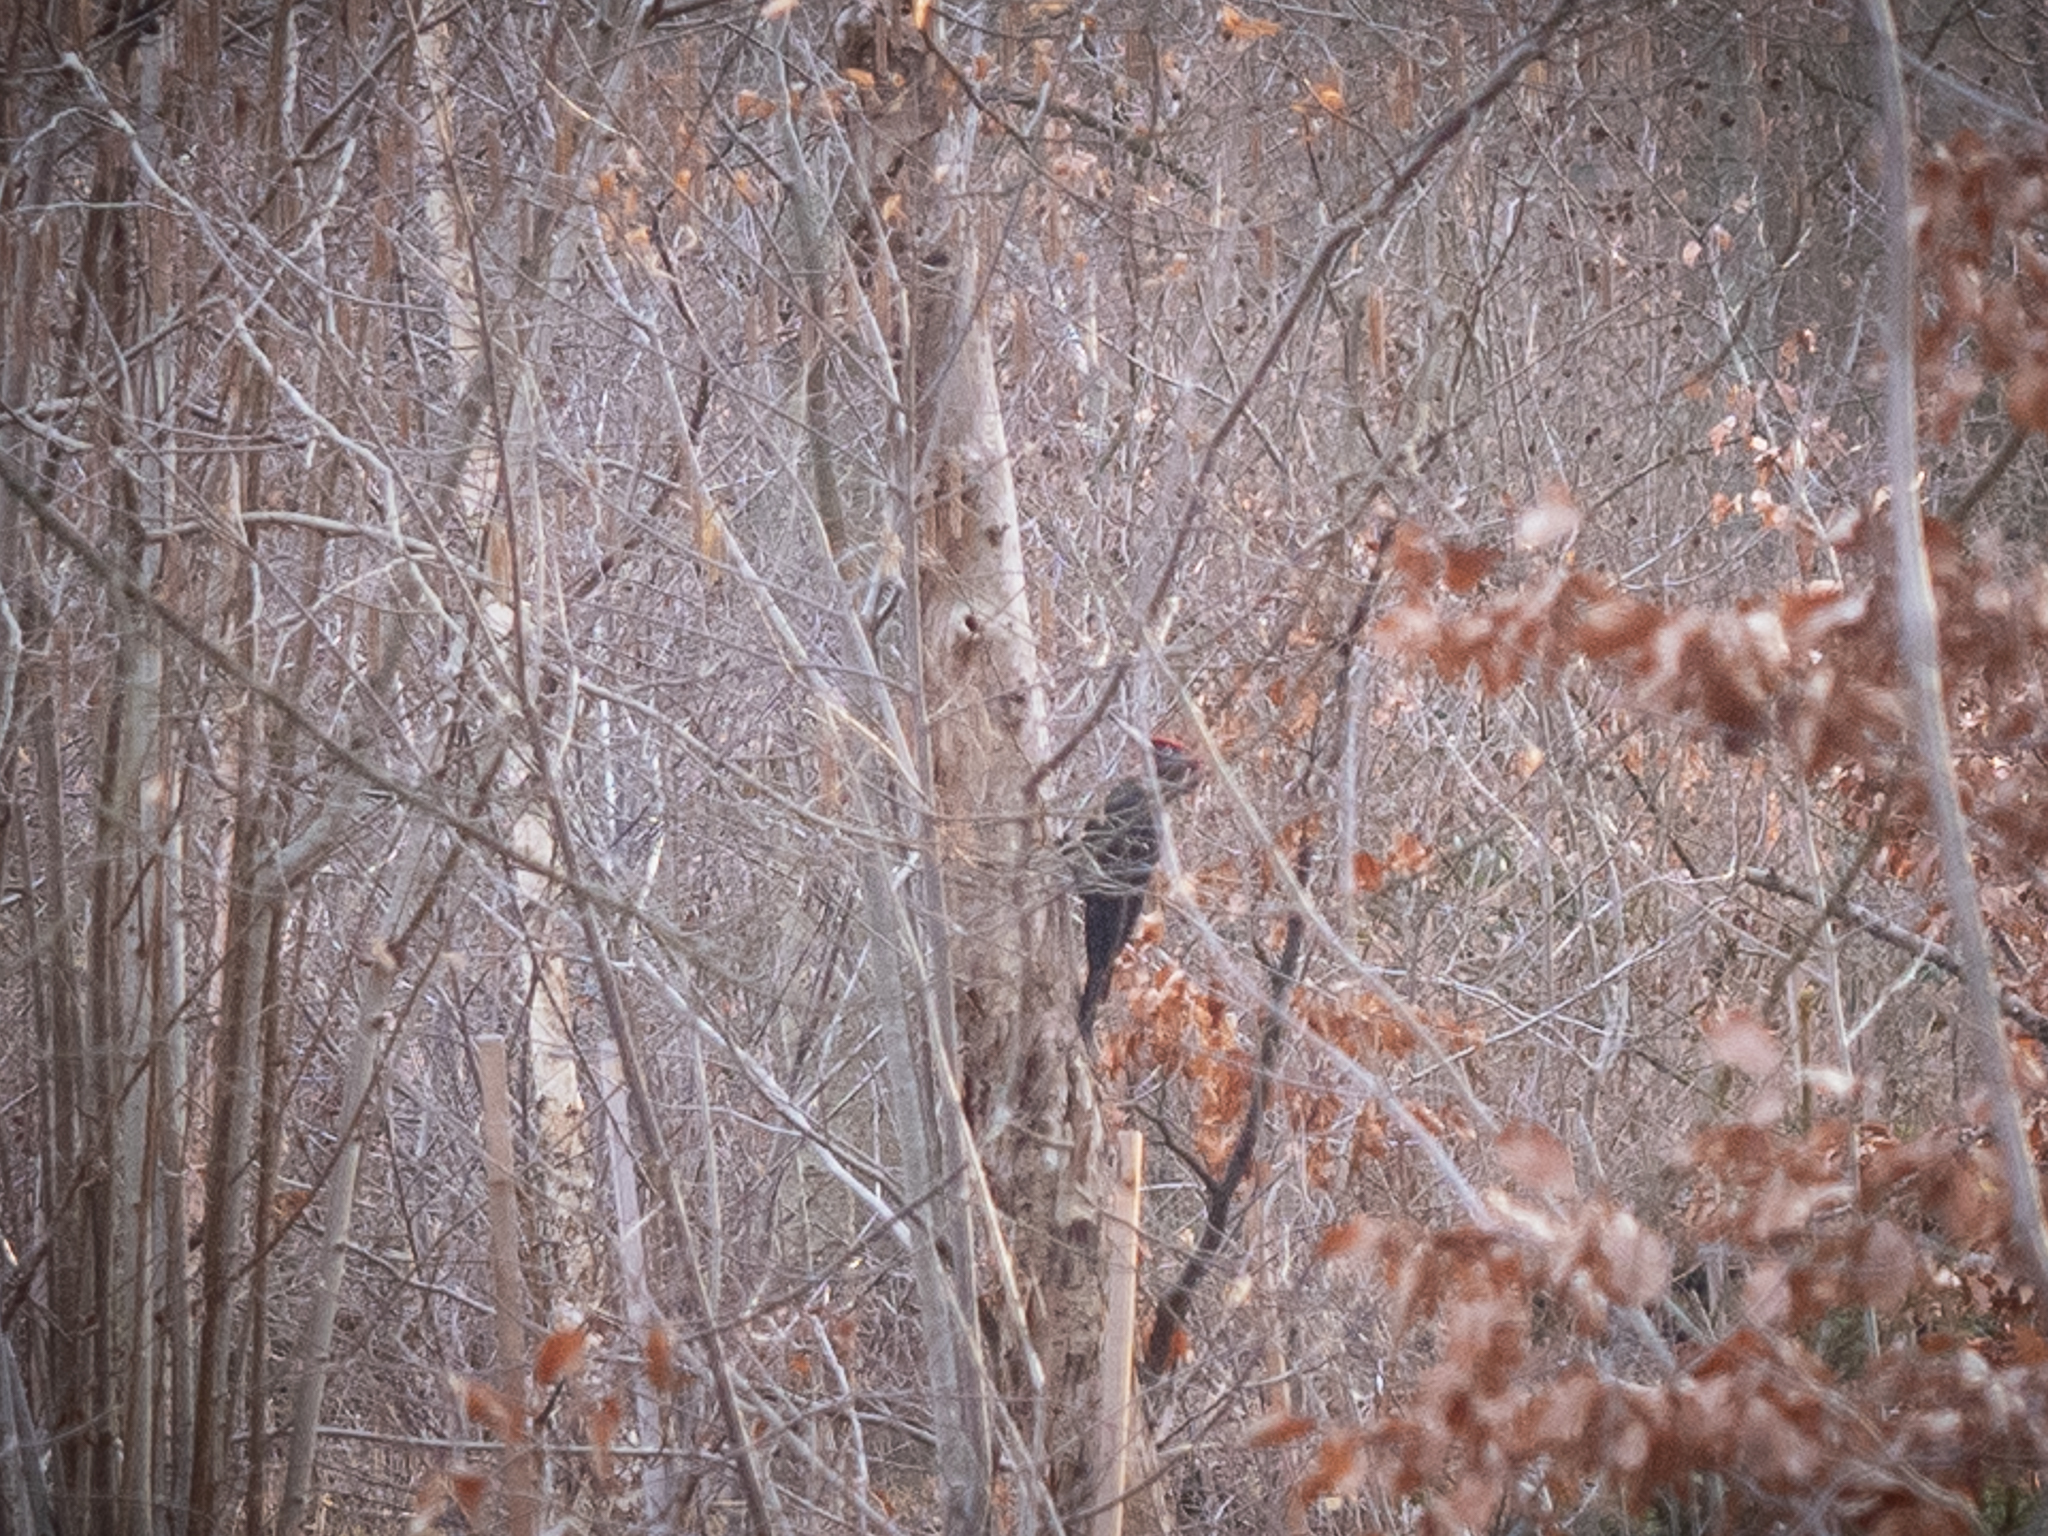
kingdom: Animalia
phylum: Chordata
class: Aves
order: Piciformes
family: Picidae
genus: Dryocopus
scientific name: Dryocopus martius
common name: Black woodpecker
